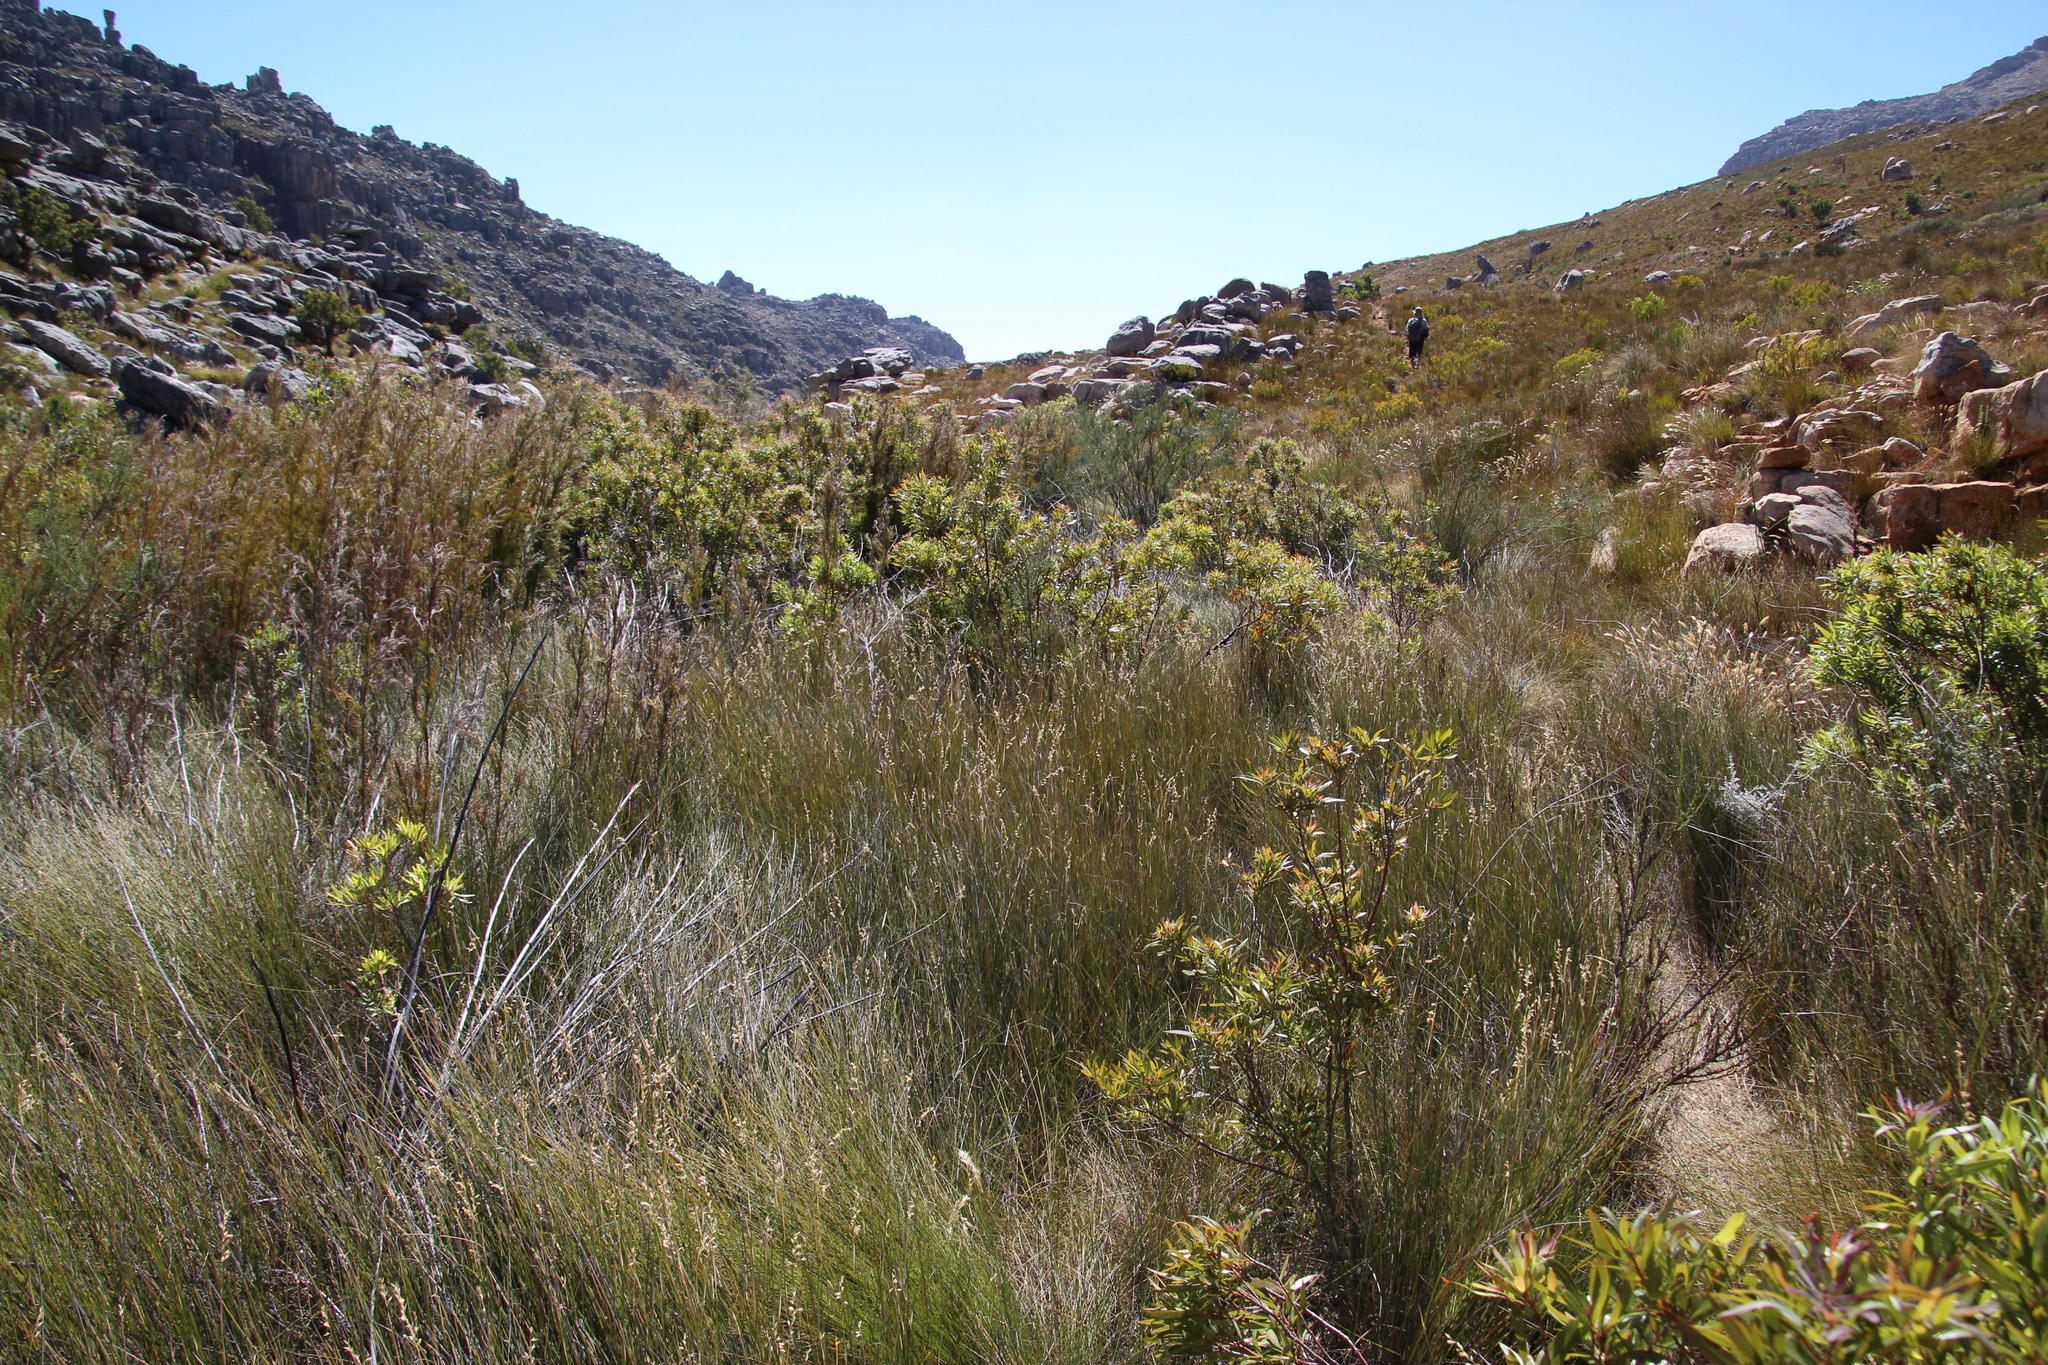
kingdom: Plantae
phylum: Tracheophyta
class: Liliopsida
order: Poales
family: Poaceae
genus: Ehrharta
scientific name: Ehrharta ramosa
